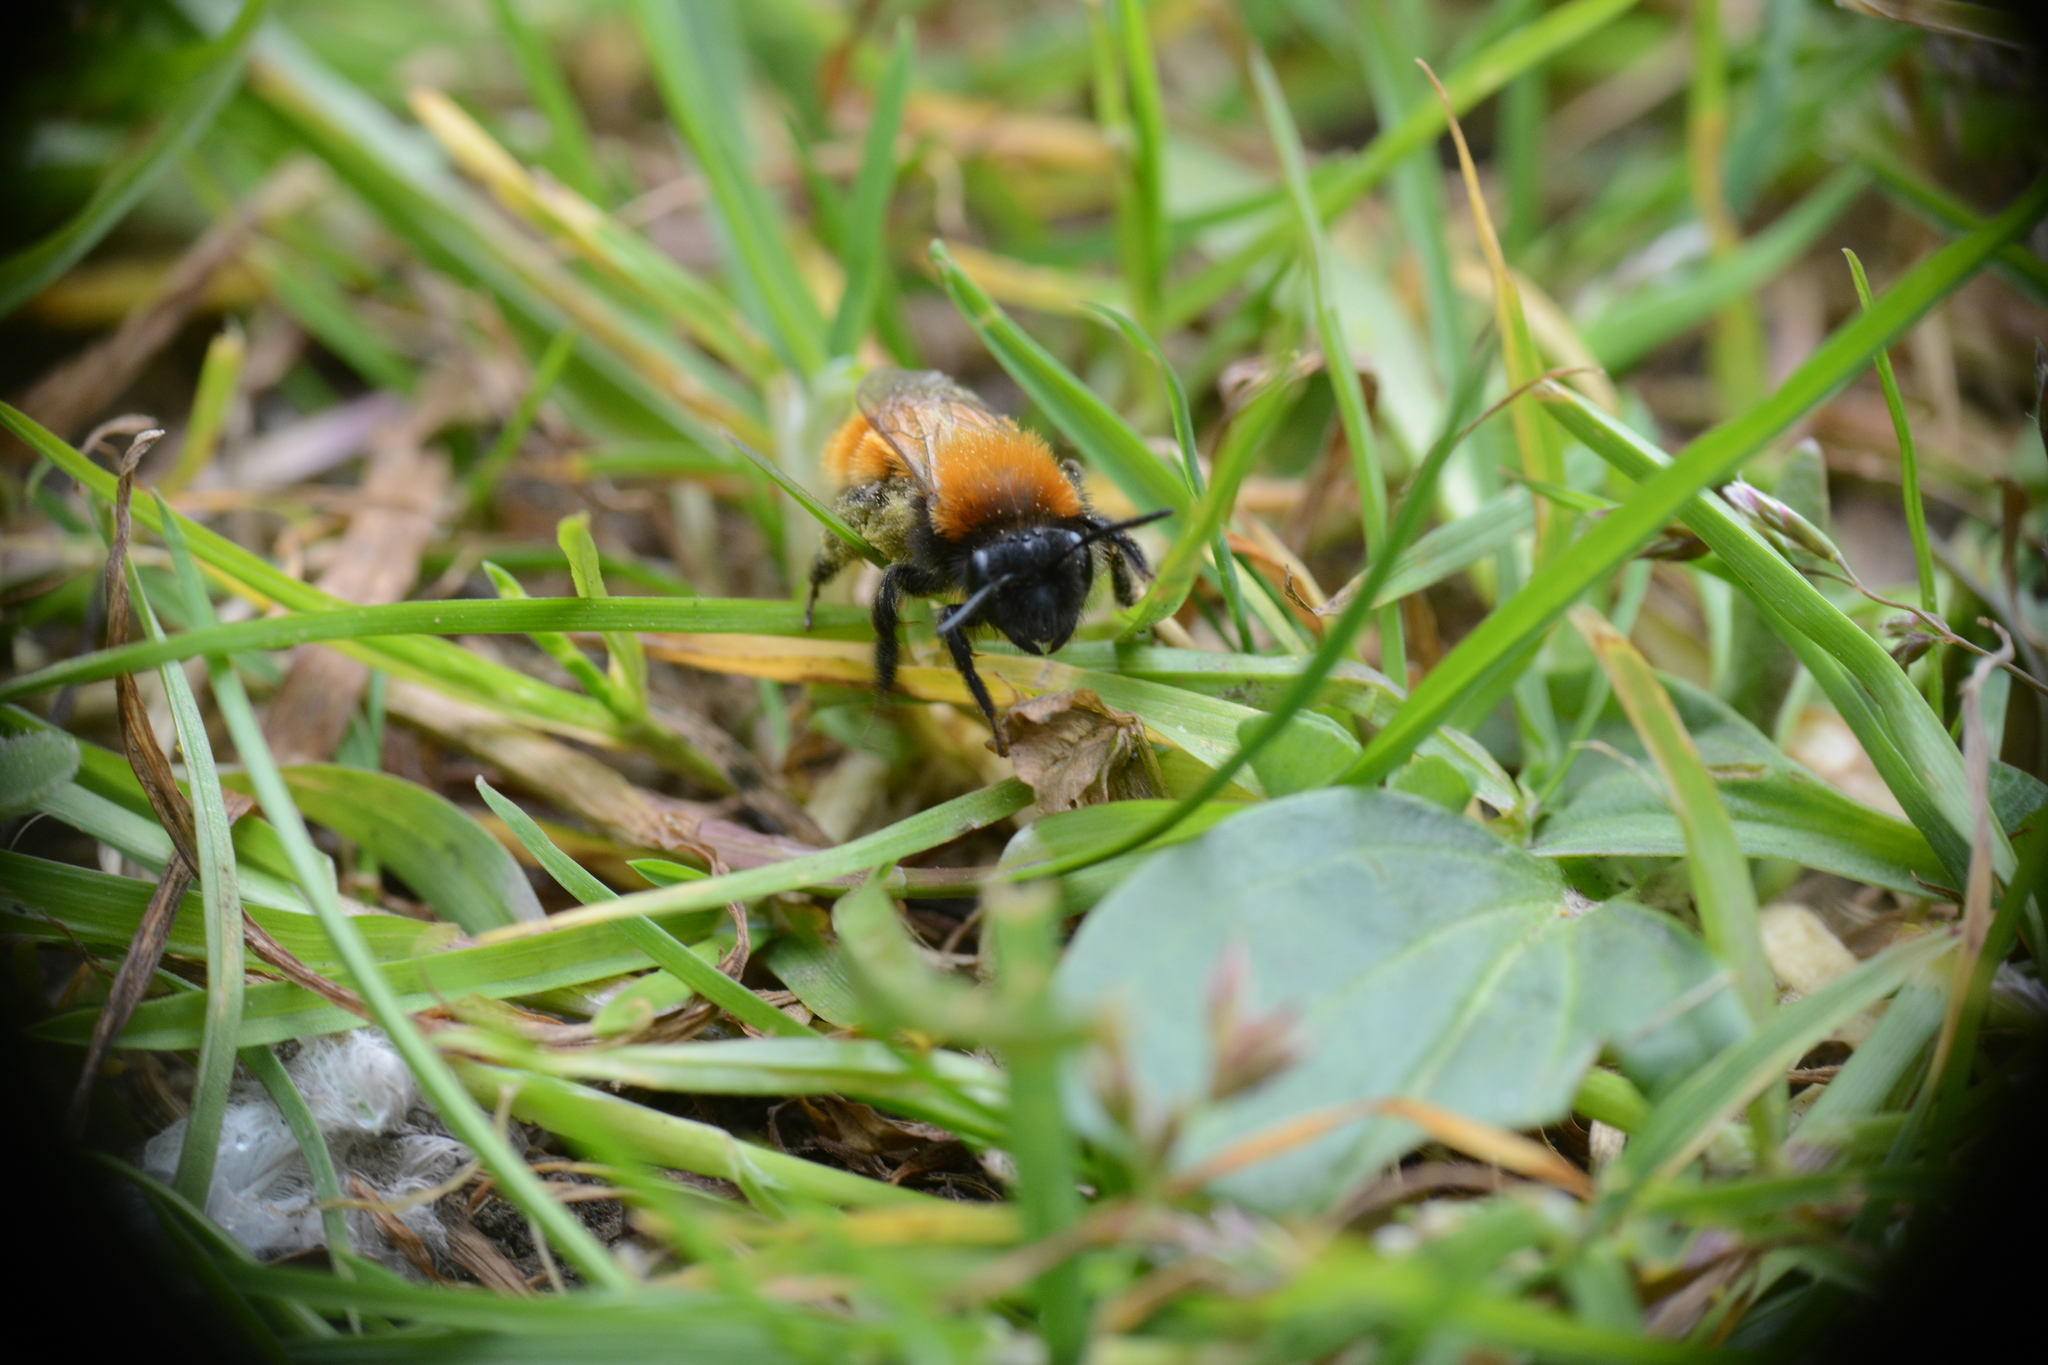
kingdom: Animalia
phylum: Arthropoda
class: Insecta
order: Hymenoptera
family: Andrenidae
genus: Andrena
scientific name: Andrena fulva
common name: Tawny mining bee
